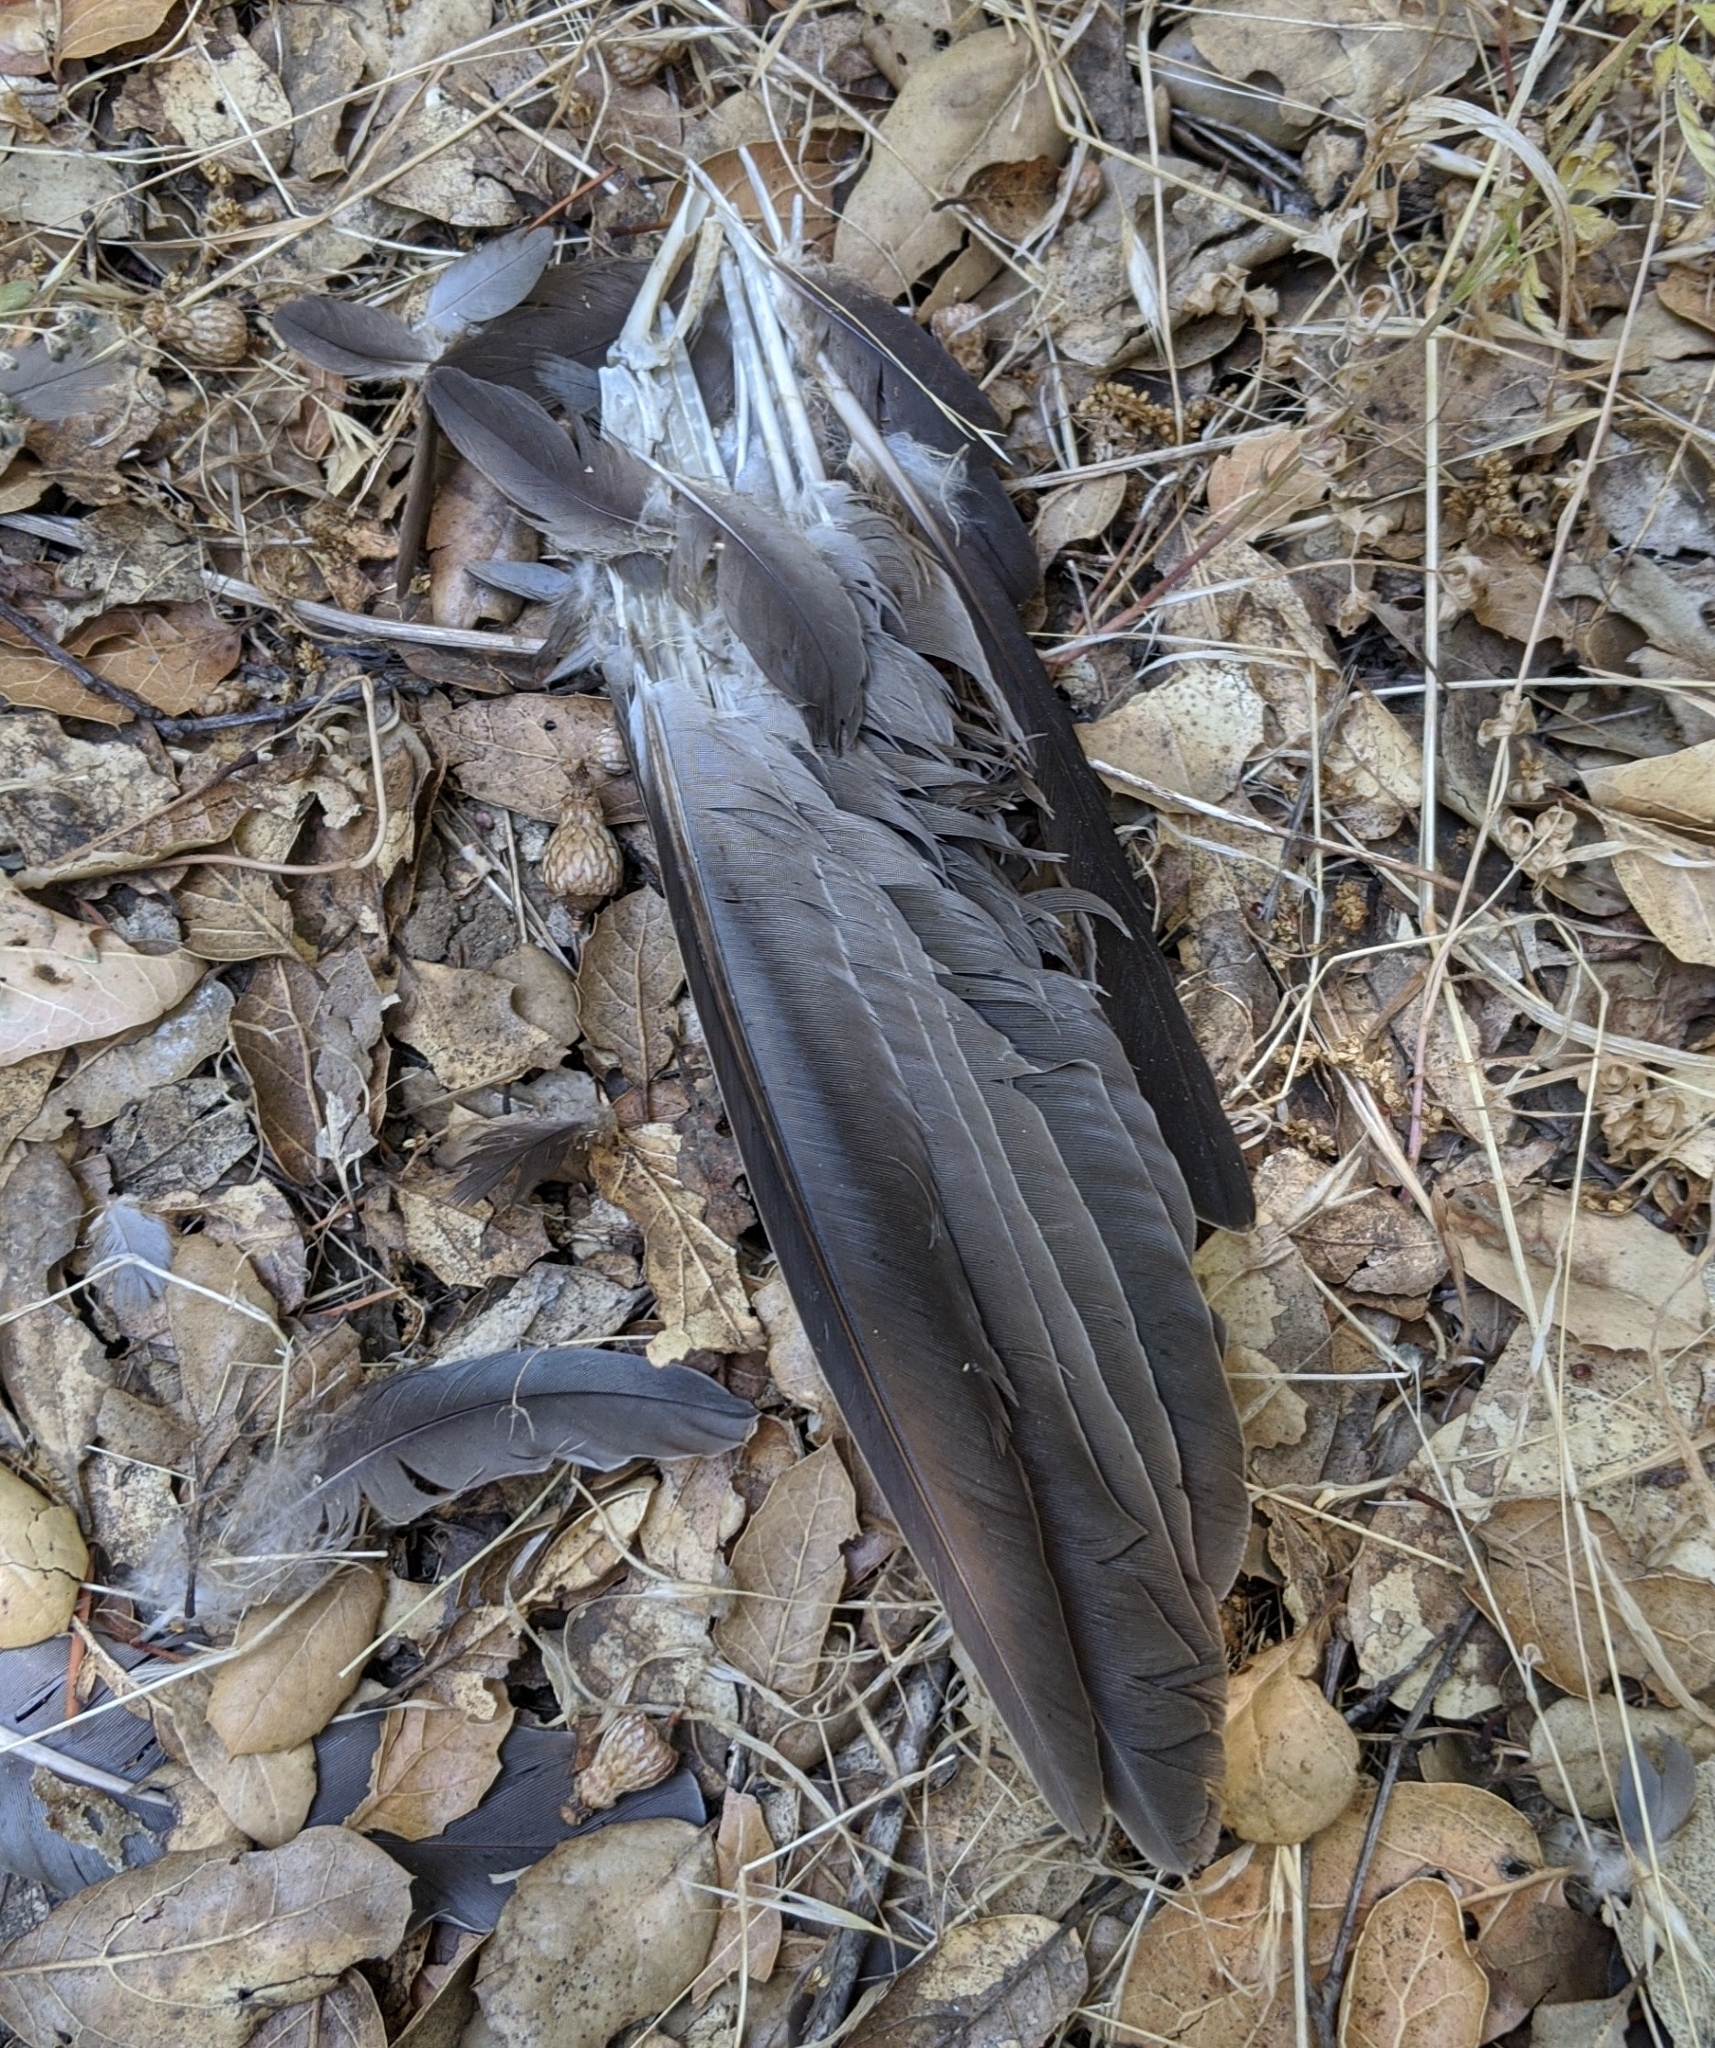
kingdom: Animalia
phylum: Chordata
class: Aves
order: Columbiformes
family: Columbidae
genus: Patagioenas
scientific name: Patagioenas fasciata
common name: Band-tailed pigeon
